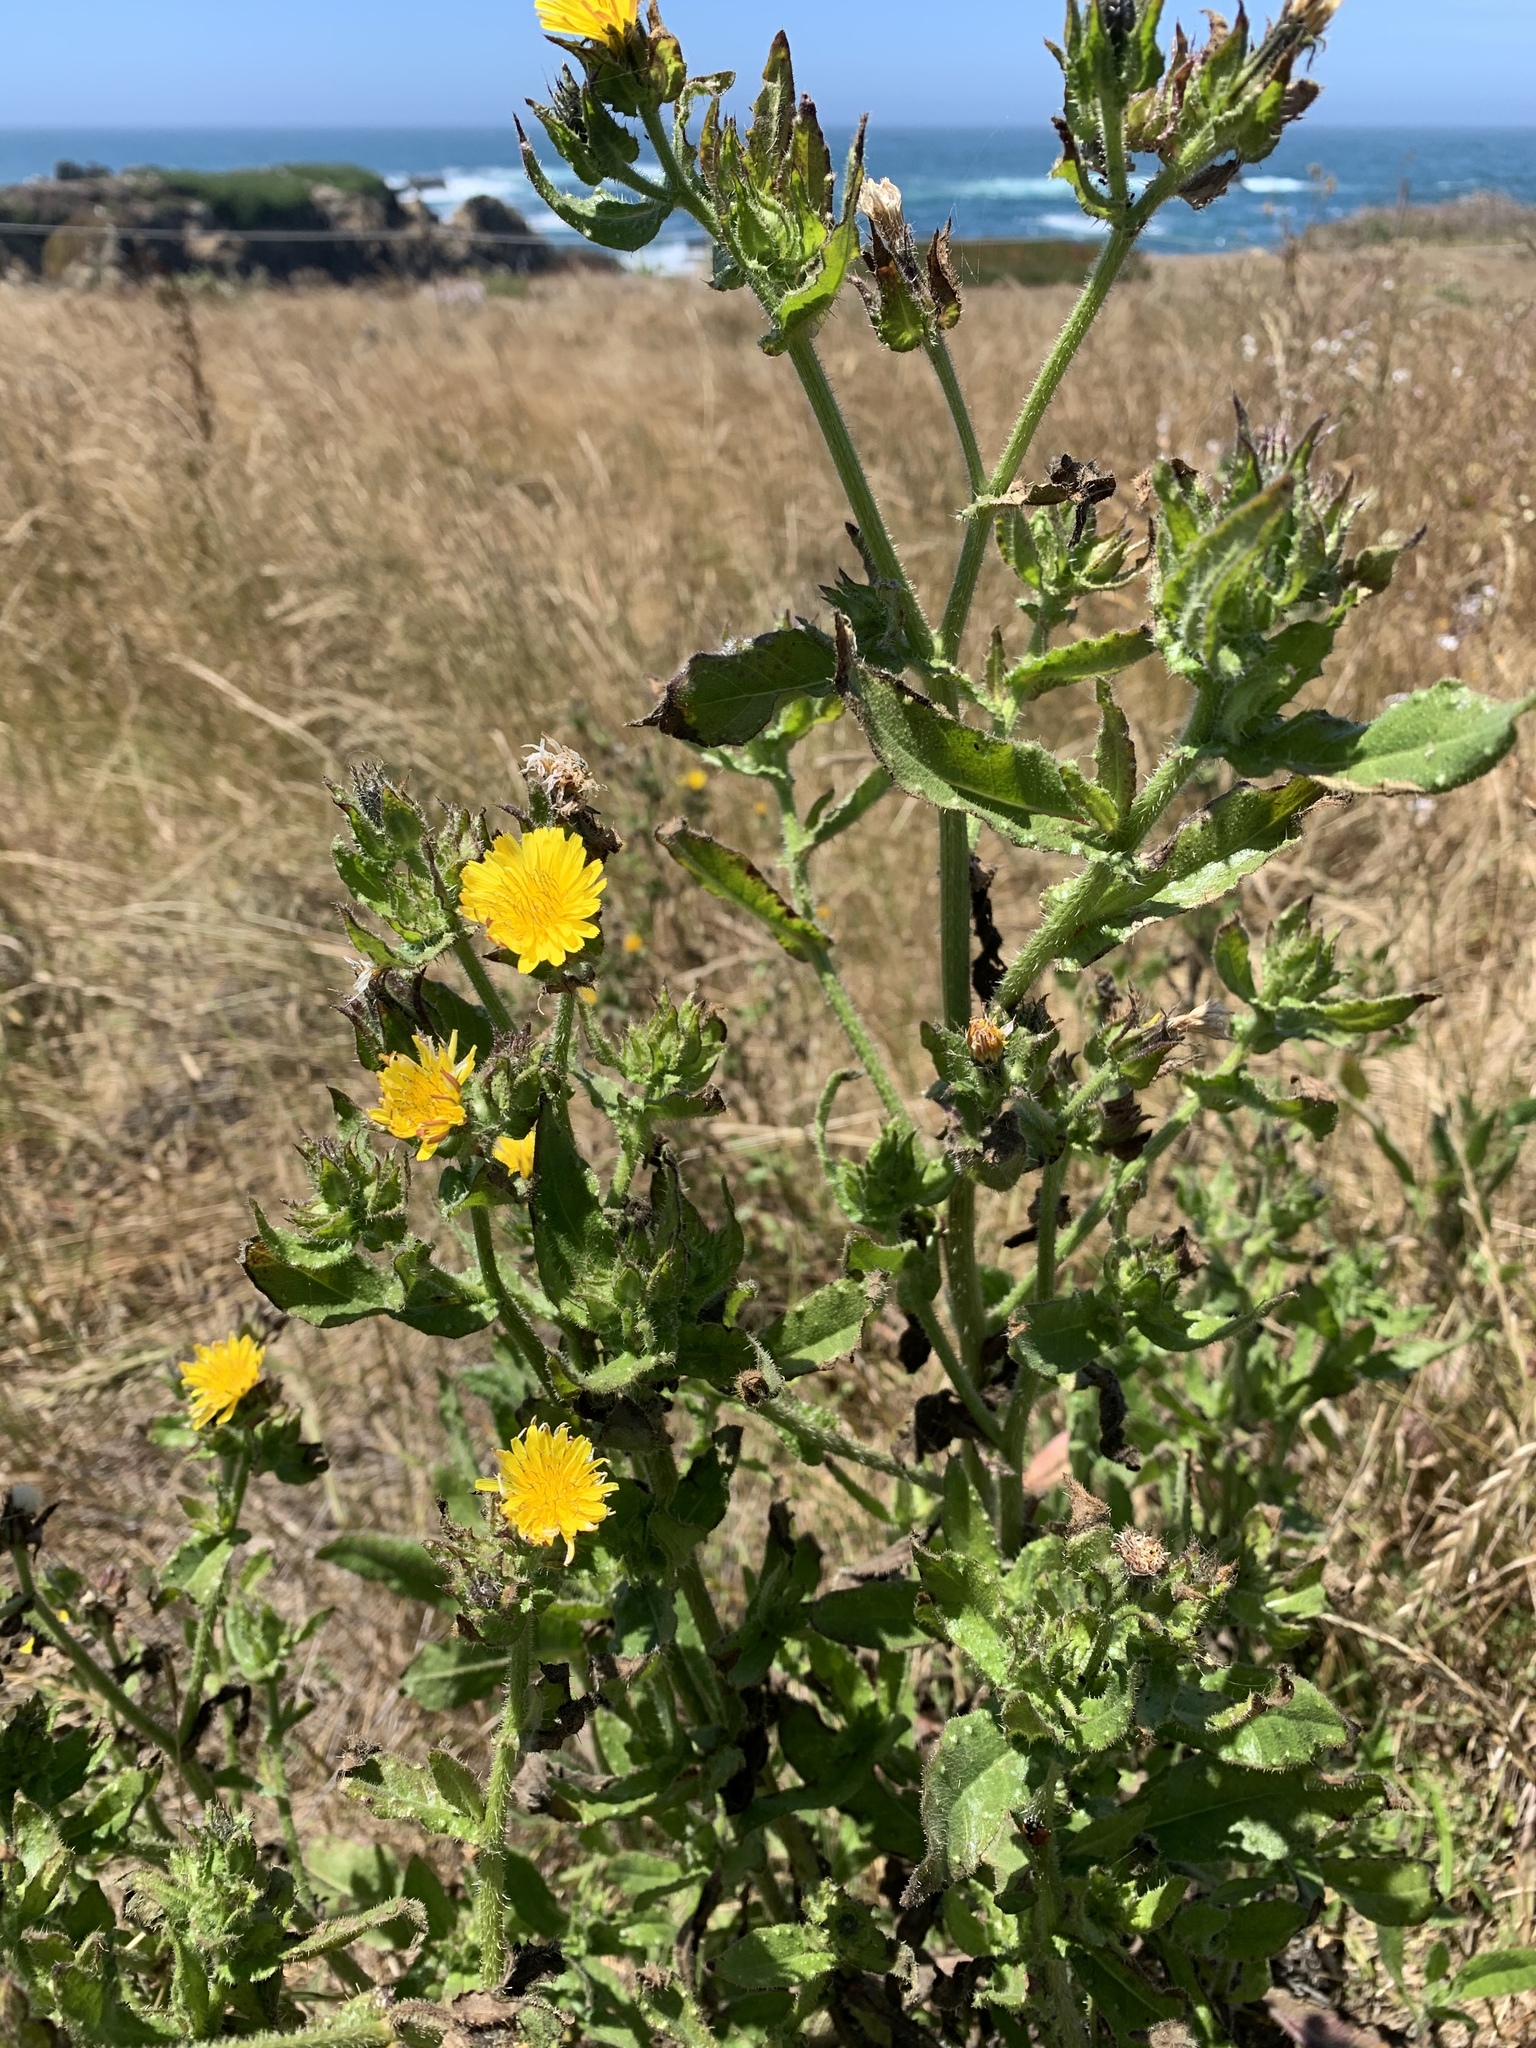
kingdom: Plantae
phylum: Tracheophyta
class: Magnoliopsida
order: Asterales
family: Asteraceae
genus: Helminthotheca
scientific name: Helminthotheca echioides
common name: Ox-tongue
